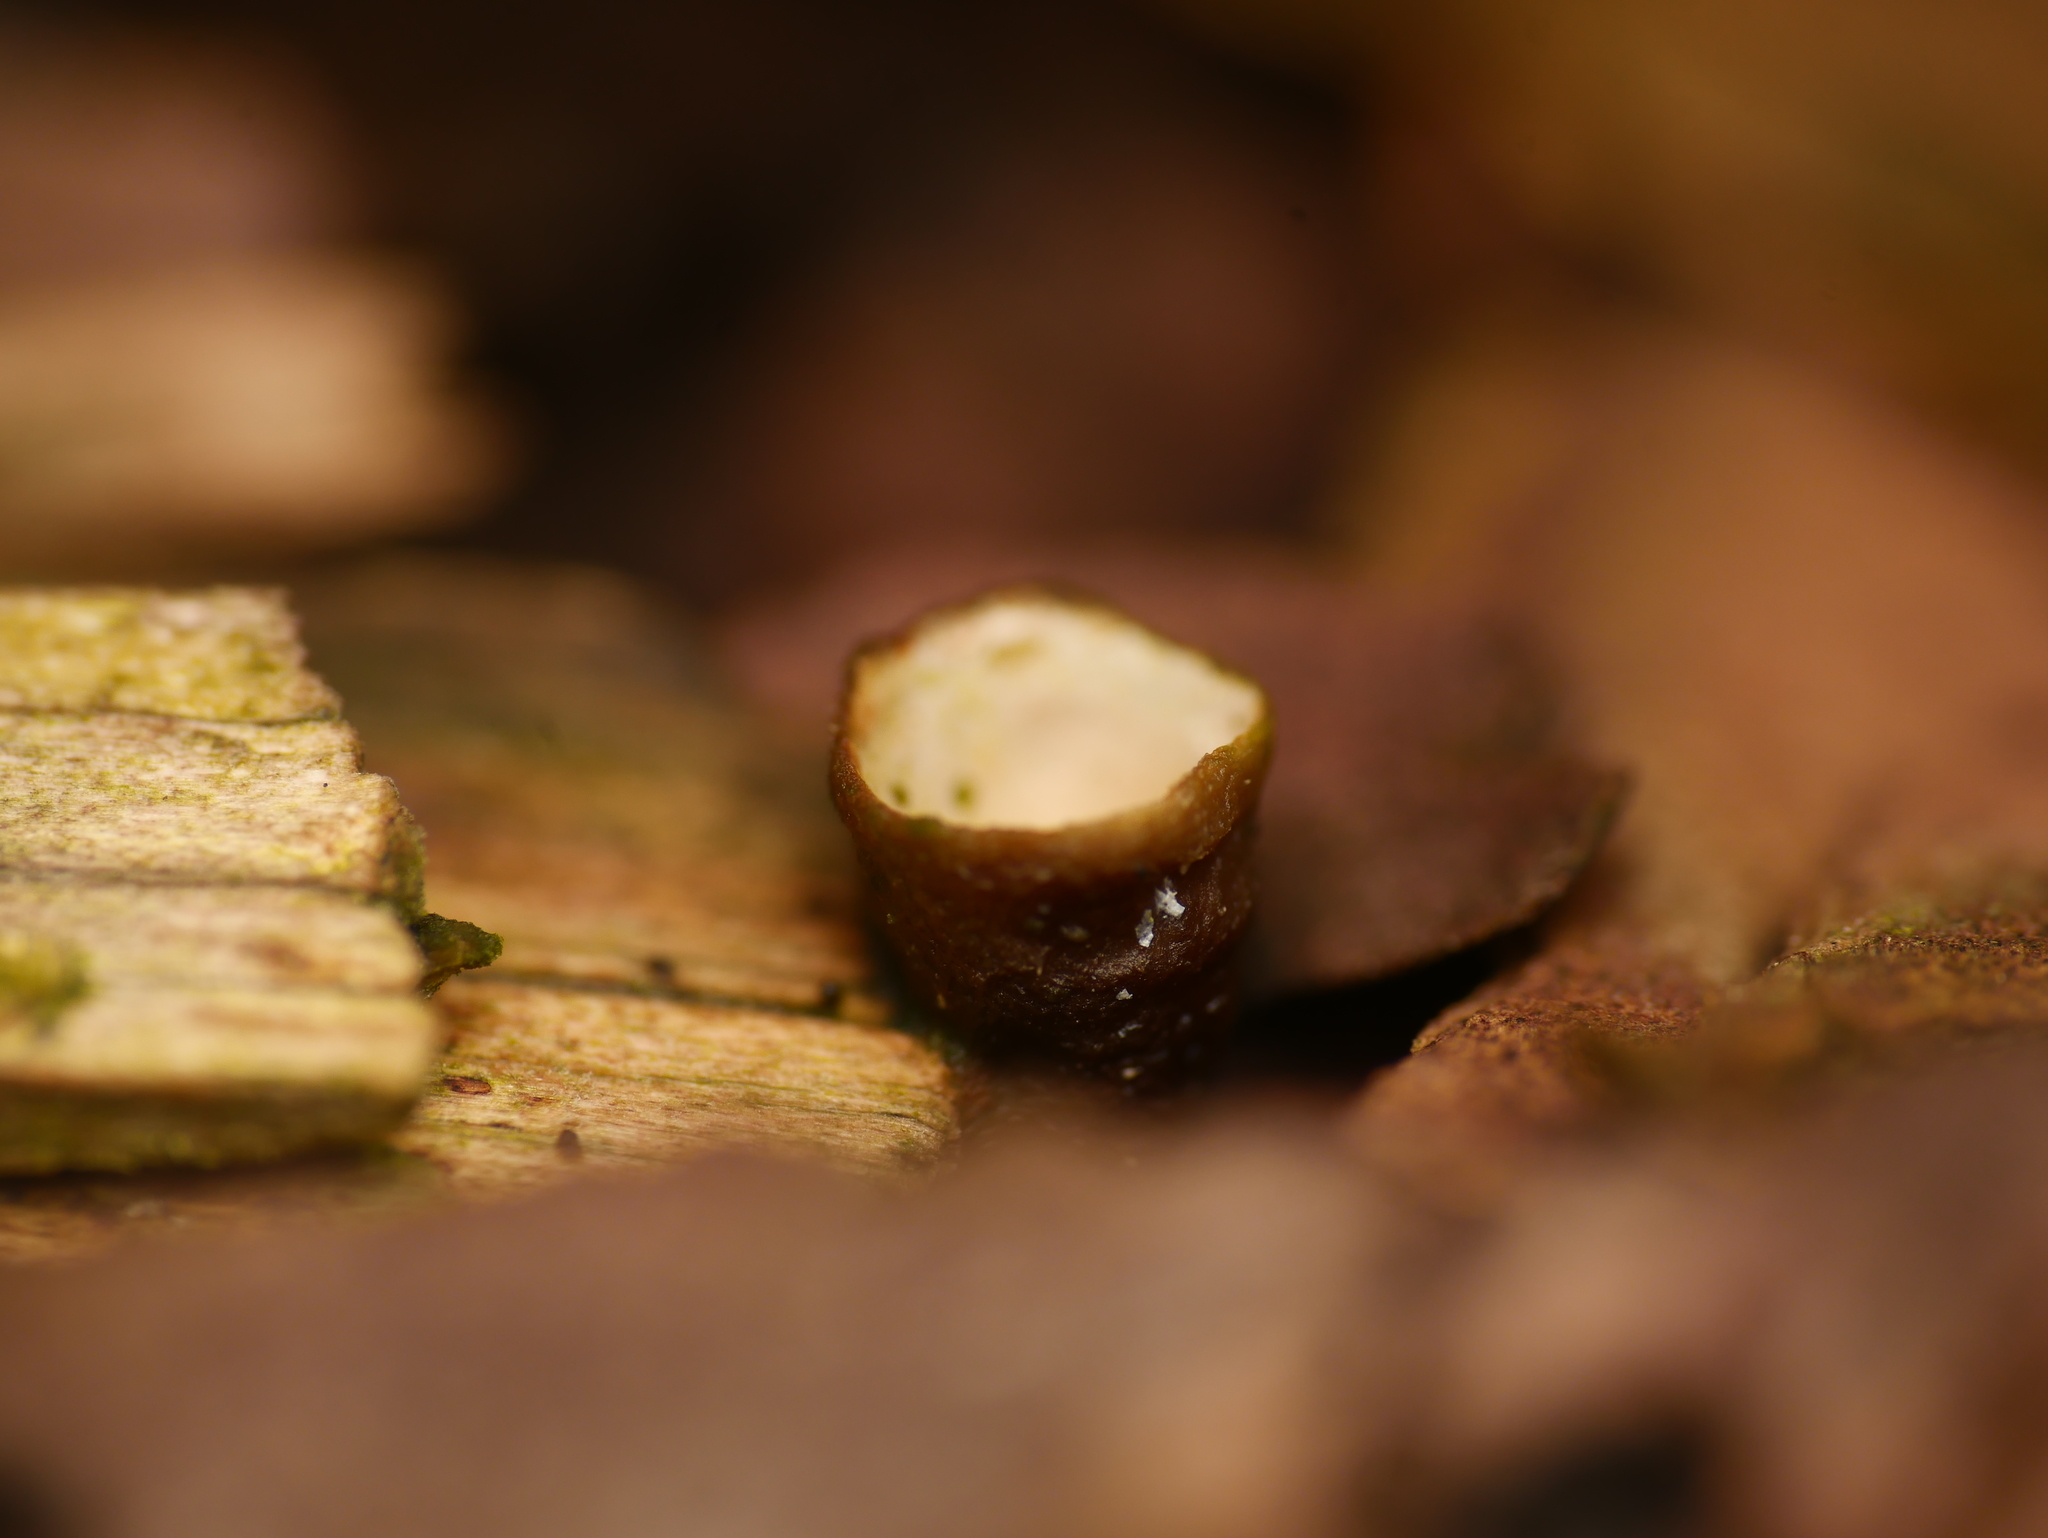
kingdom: Fungi
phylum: Basidiomycota
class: Agaricomycetes
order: Agaricales
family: Nidulariaceae
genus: Crucibulum
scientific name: Crucibulum laeve
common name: Common bird's nest
